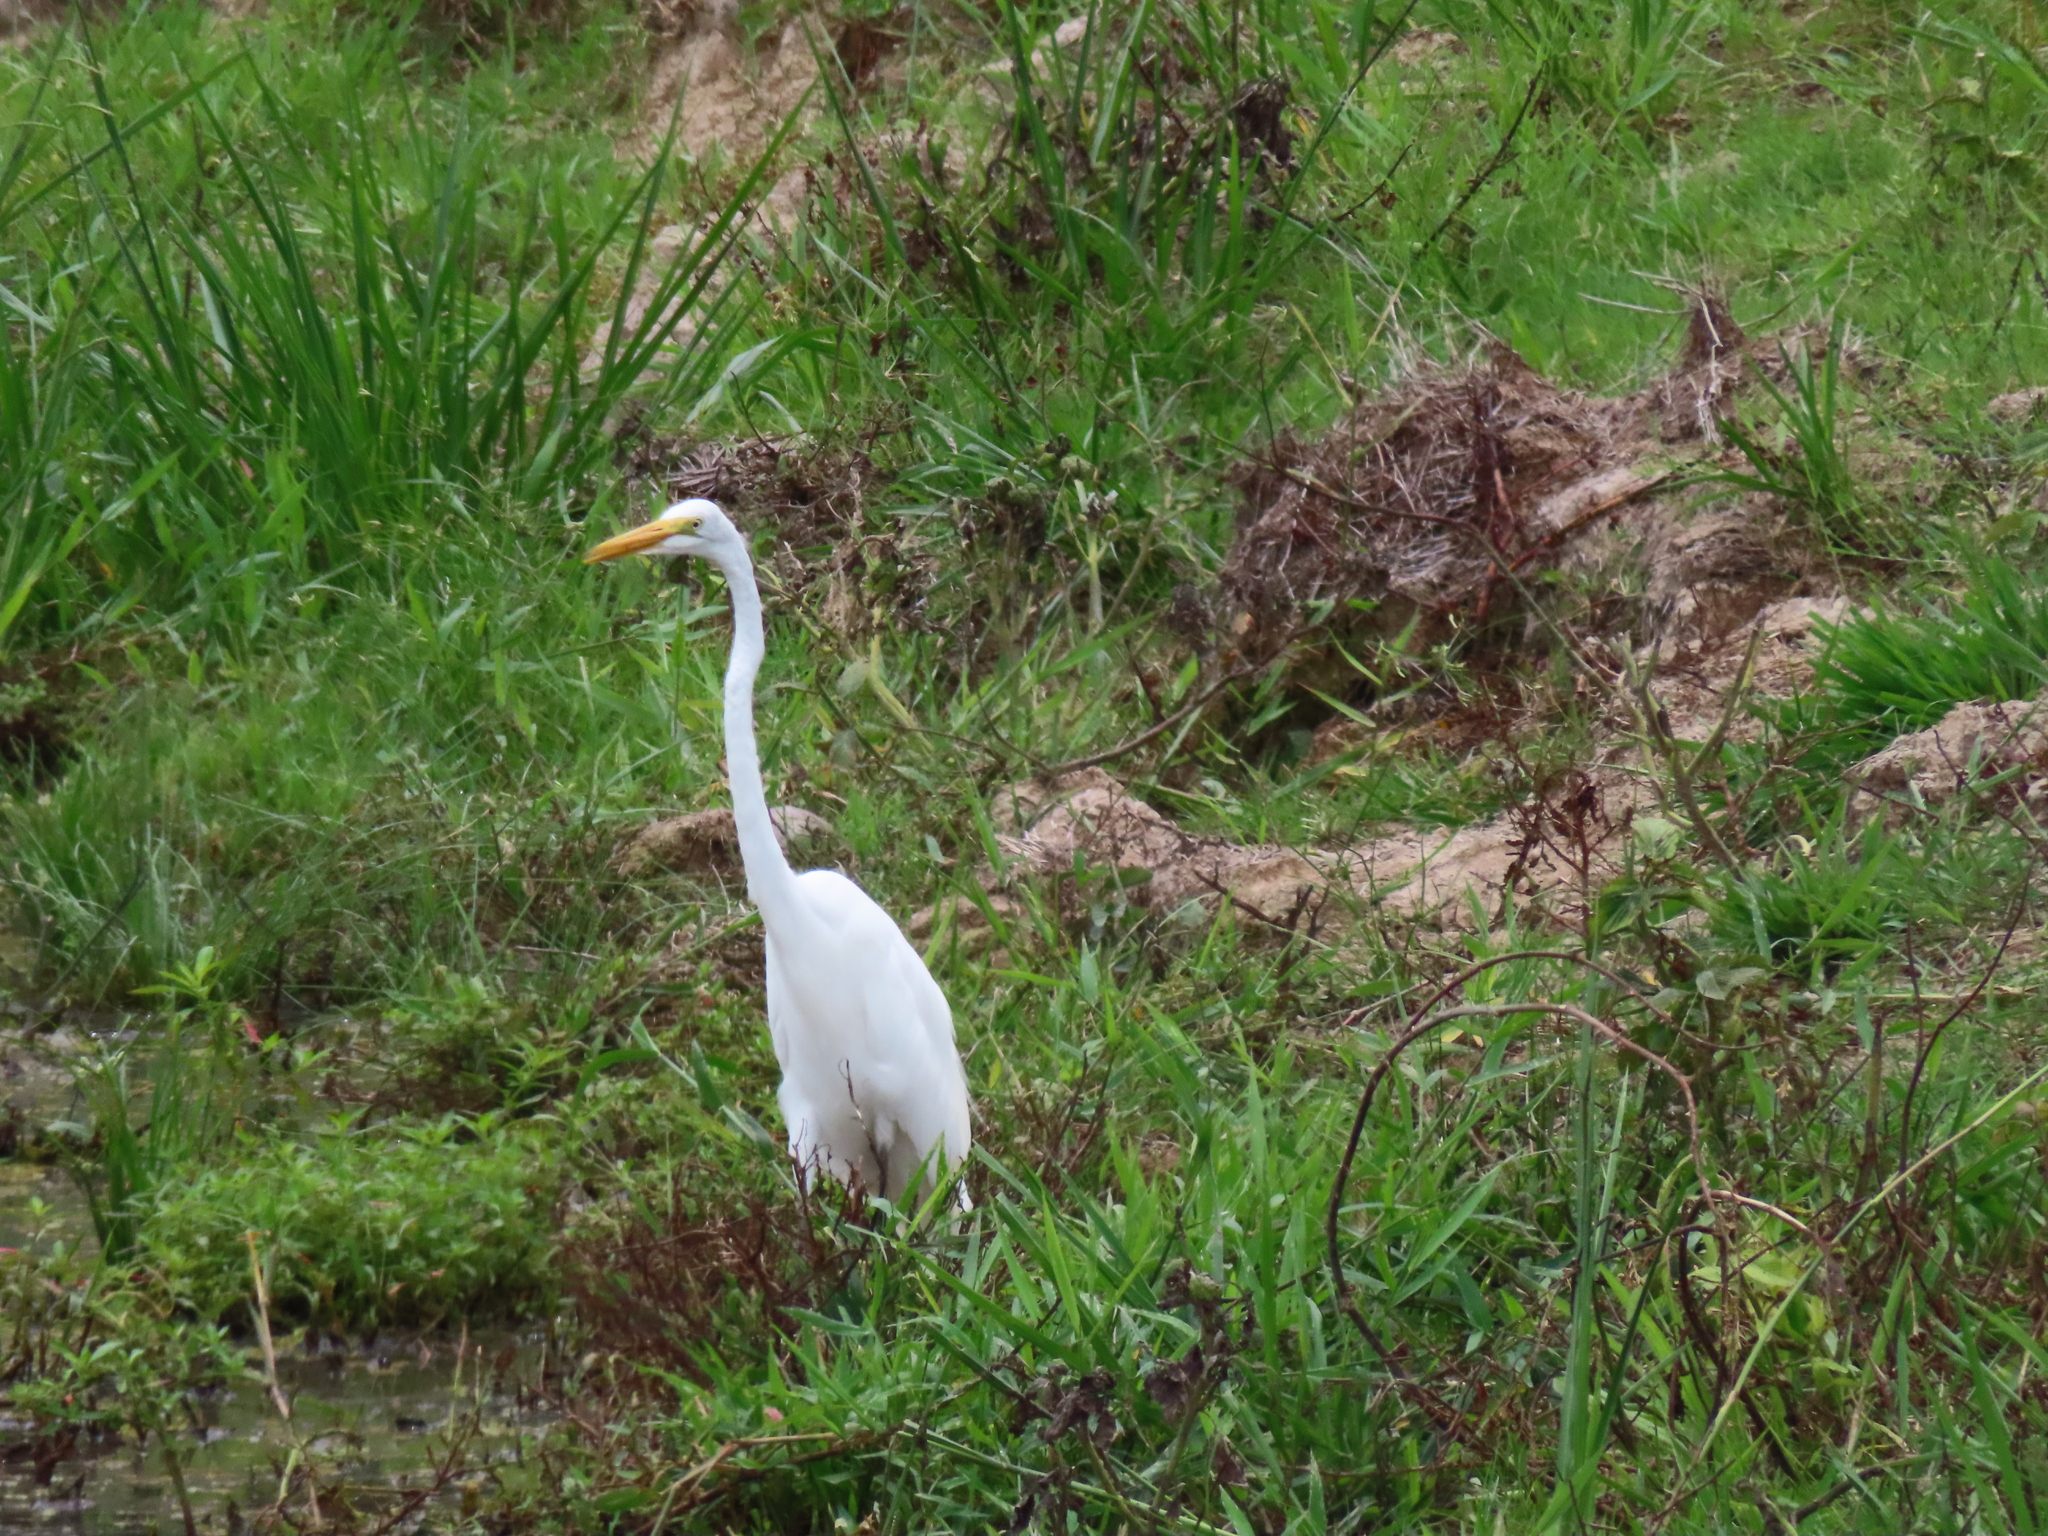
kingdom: Animalia
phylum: Chordata
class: Aves
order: Pelecaniformes
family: Ardeidae
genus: Ardea
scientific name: Ardea alba
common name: Great egret
